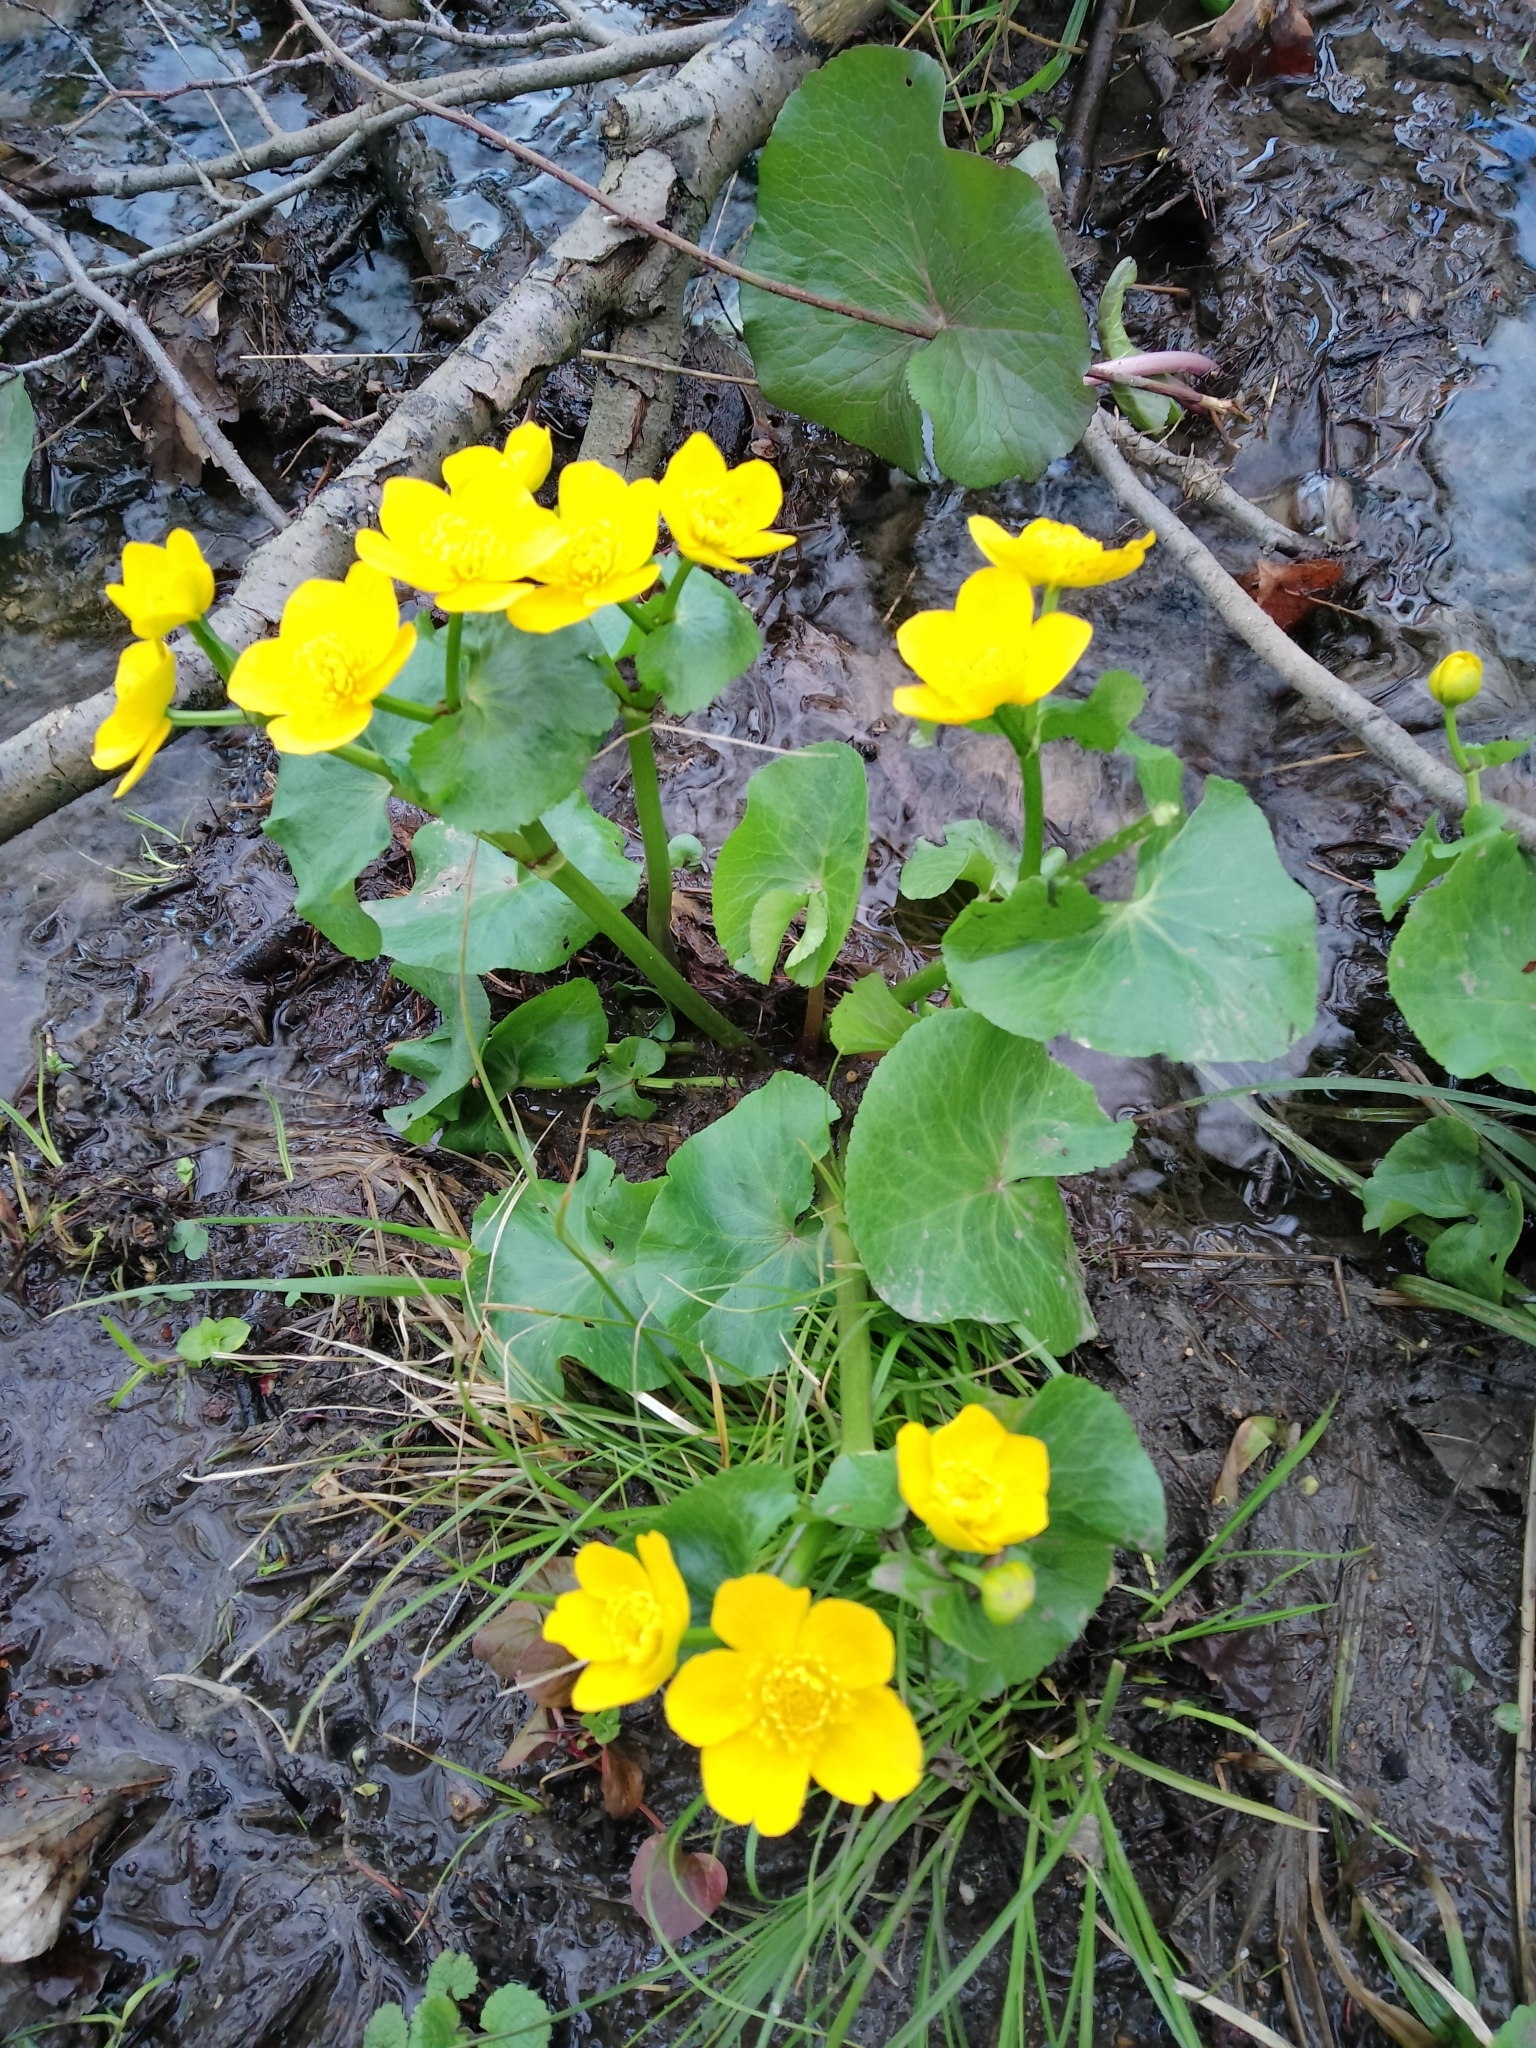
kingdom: Plantae
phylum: Tracheophyta
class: Magnoliopsida
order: Ranunculales
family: Ranunculaceae
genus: Caltha
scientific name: Caltha palustris
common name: Marsh marigold
